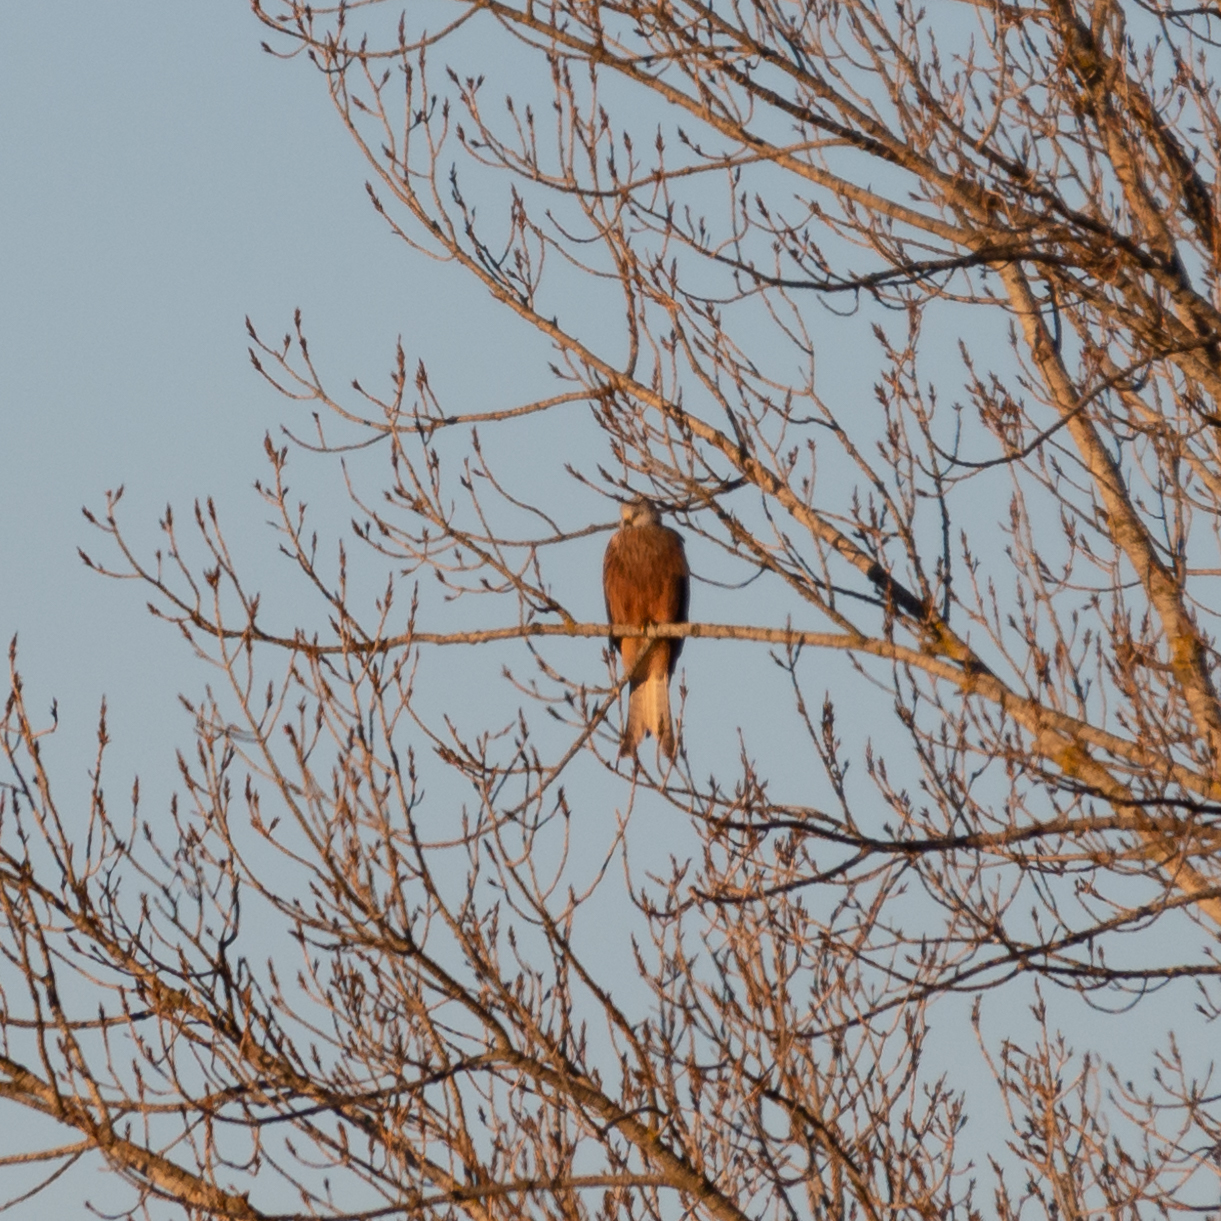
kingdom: Animalia
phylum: Chordata
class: Aves
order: Accipitriformes
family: Accipitridae
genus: Milvus
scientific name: Milvus milvus
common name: Red kite
